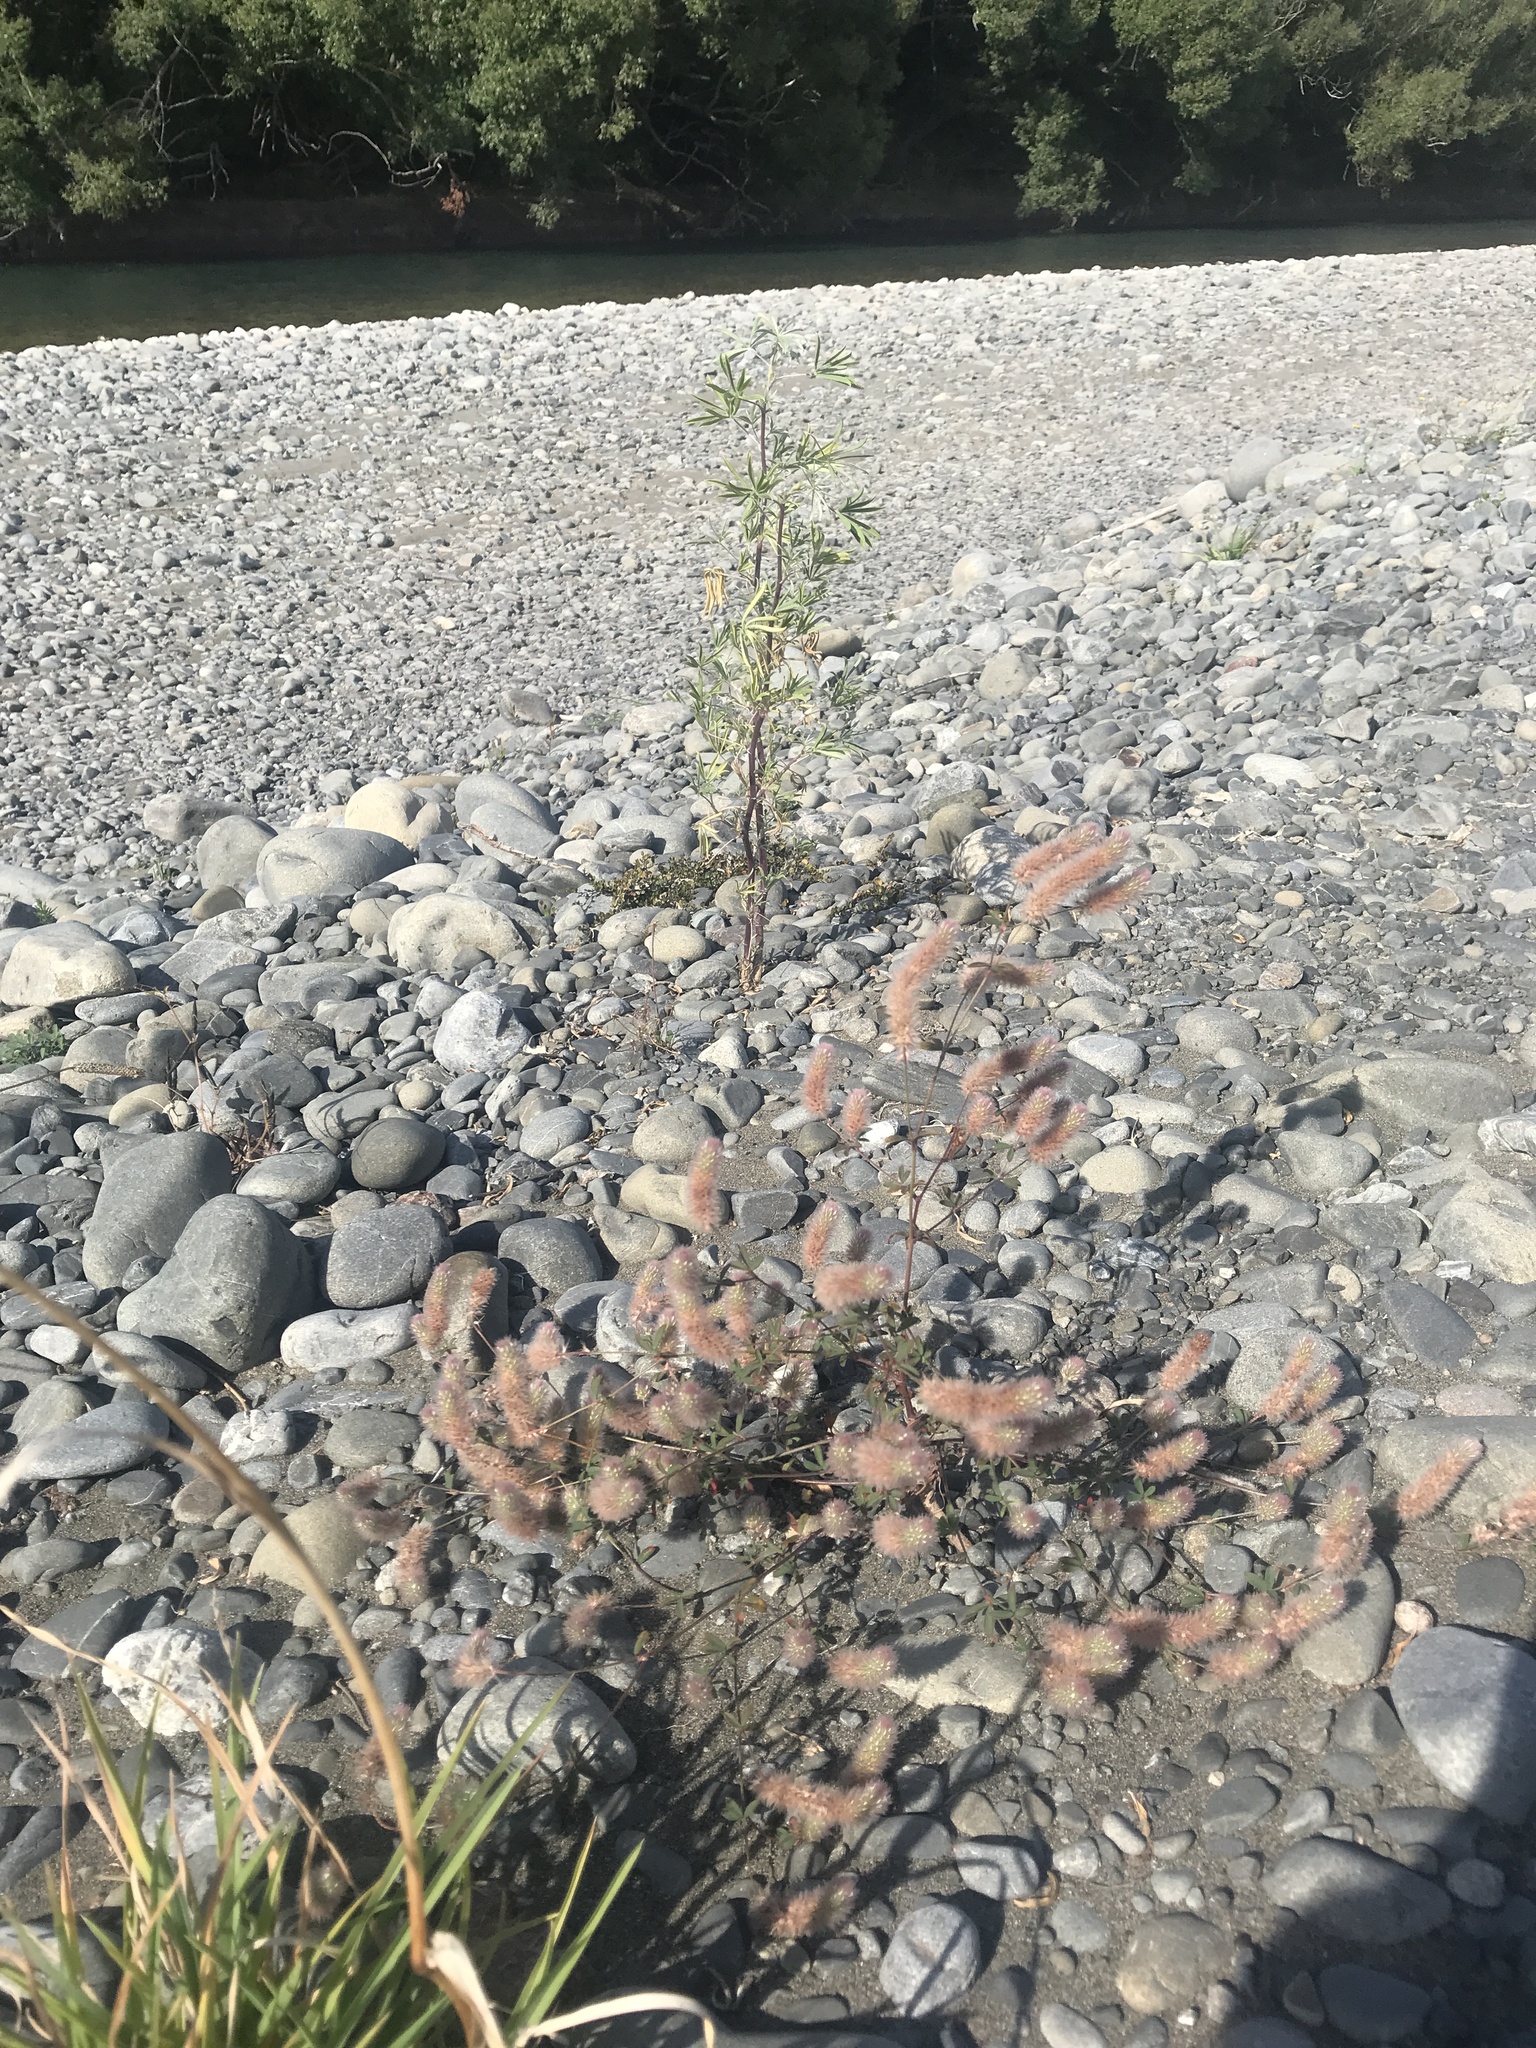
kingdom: Plantae
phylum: Tracheophyta
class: Magnoliopsida
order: Fabales
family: Fabaceae
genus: Trifolium
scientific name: Trifolium arvense
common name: Hare's-foot clover
